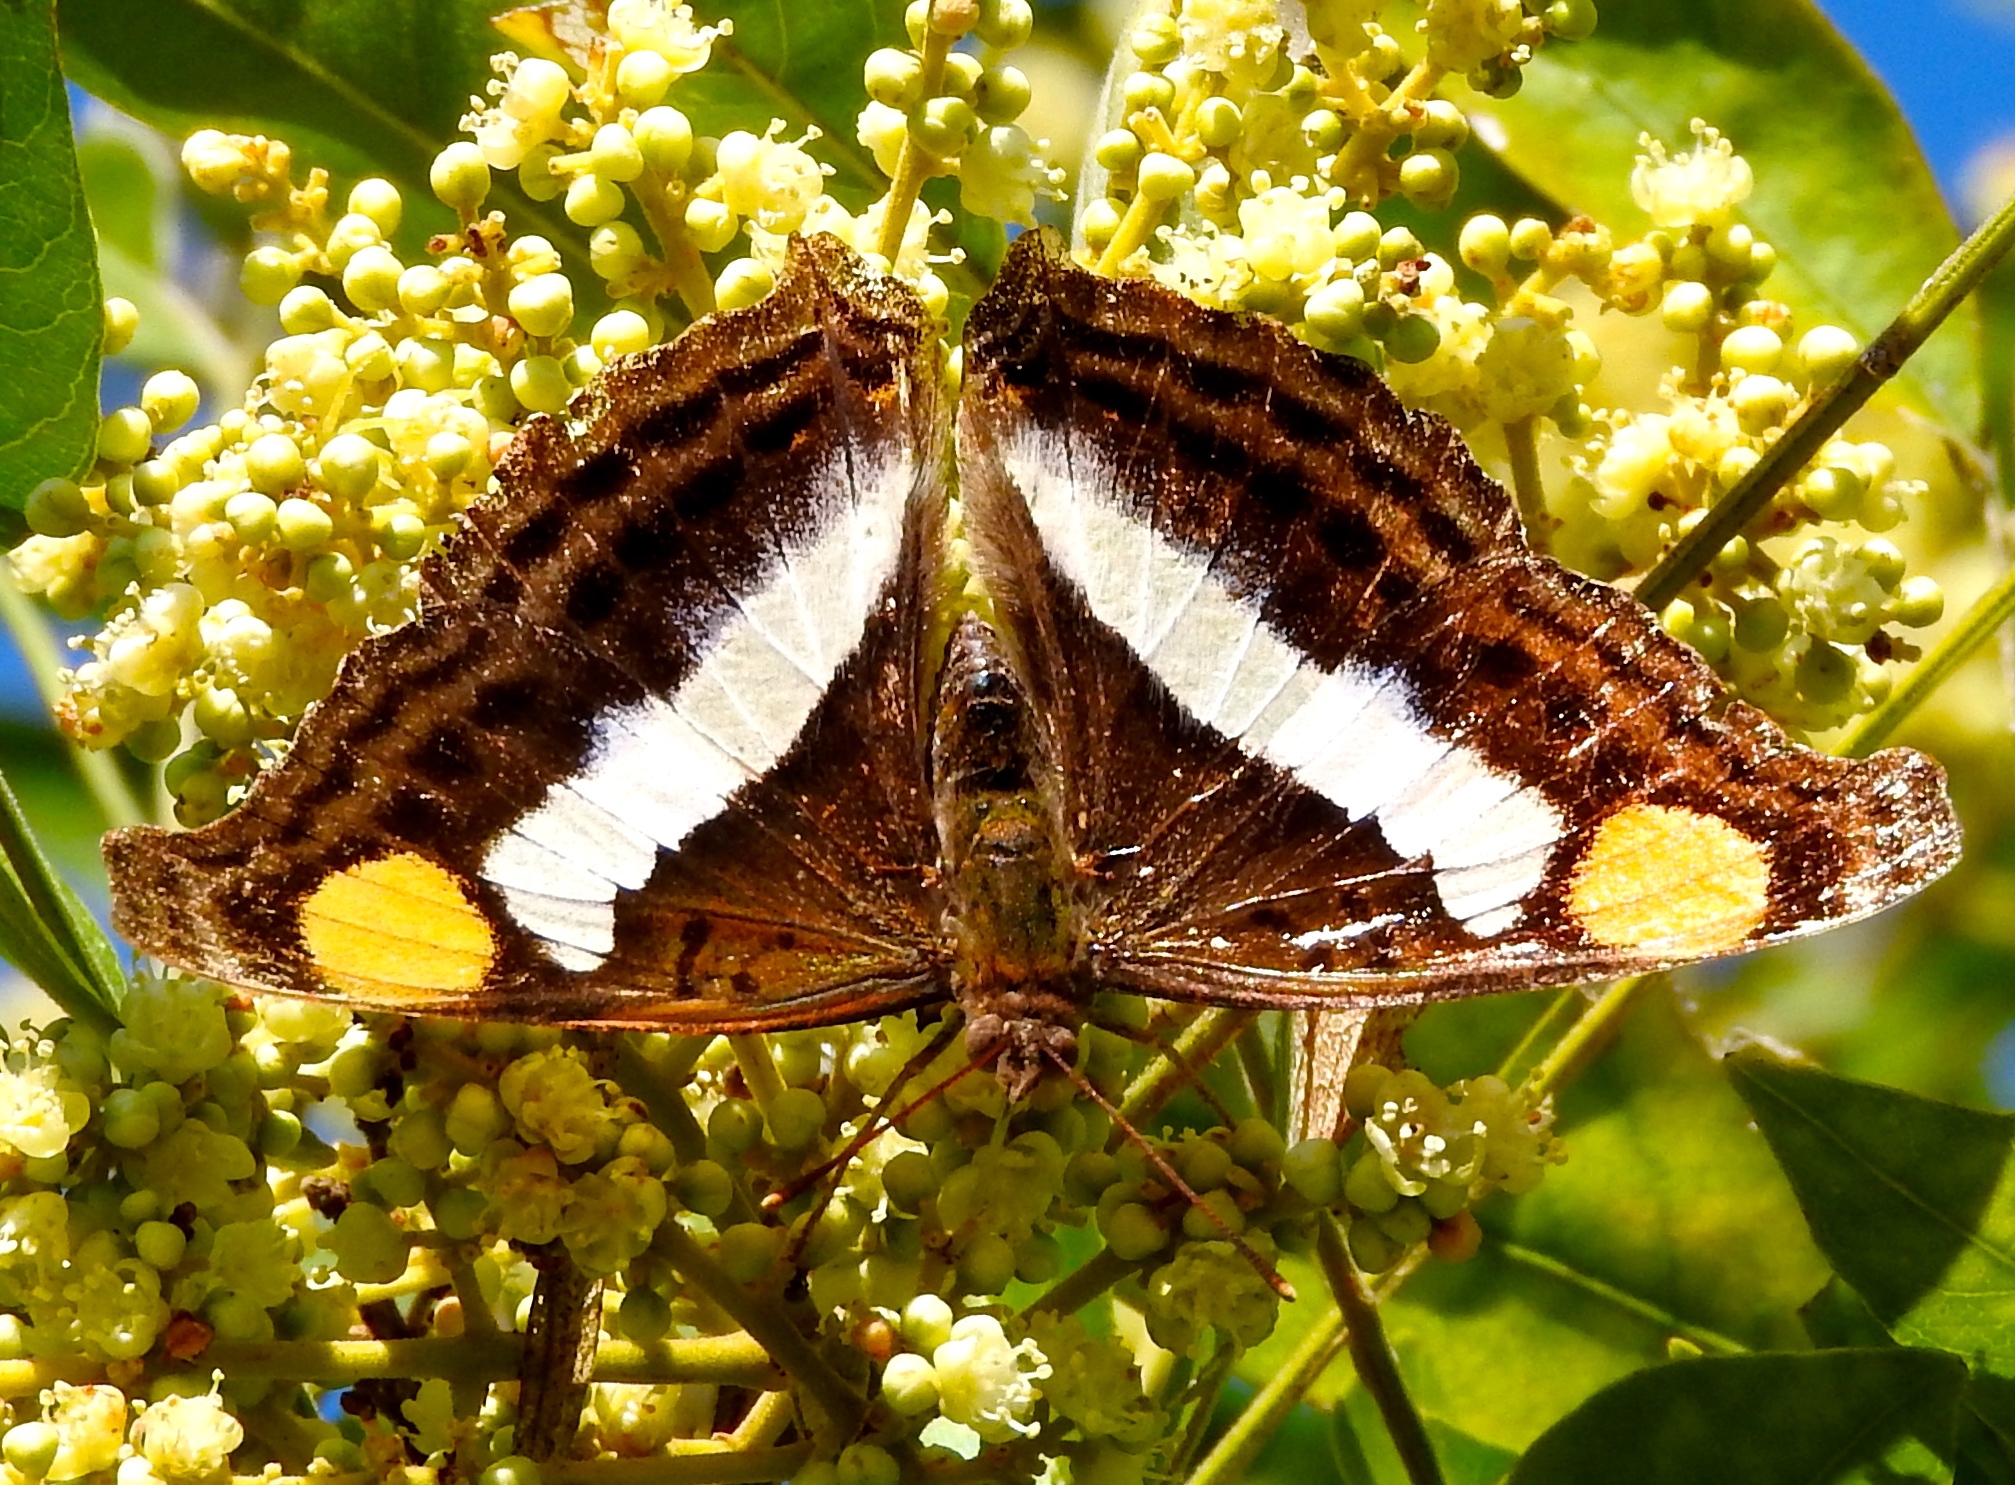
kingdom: Animalia
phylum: Arthropoda
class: Insecta
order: Lepidoptera
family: Nymphalidae
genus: Doxocopa
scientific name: Doxocopa laure
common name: Silver emperor
